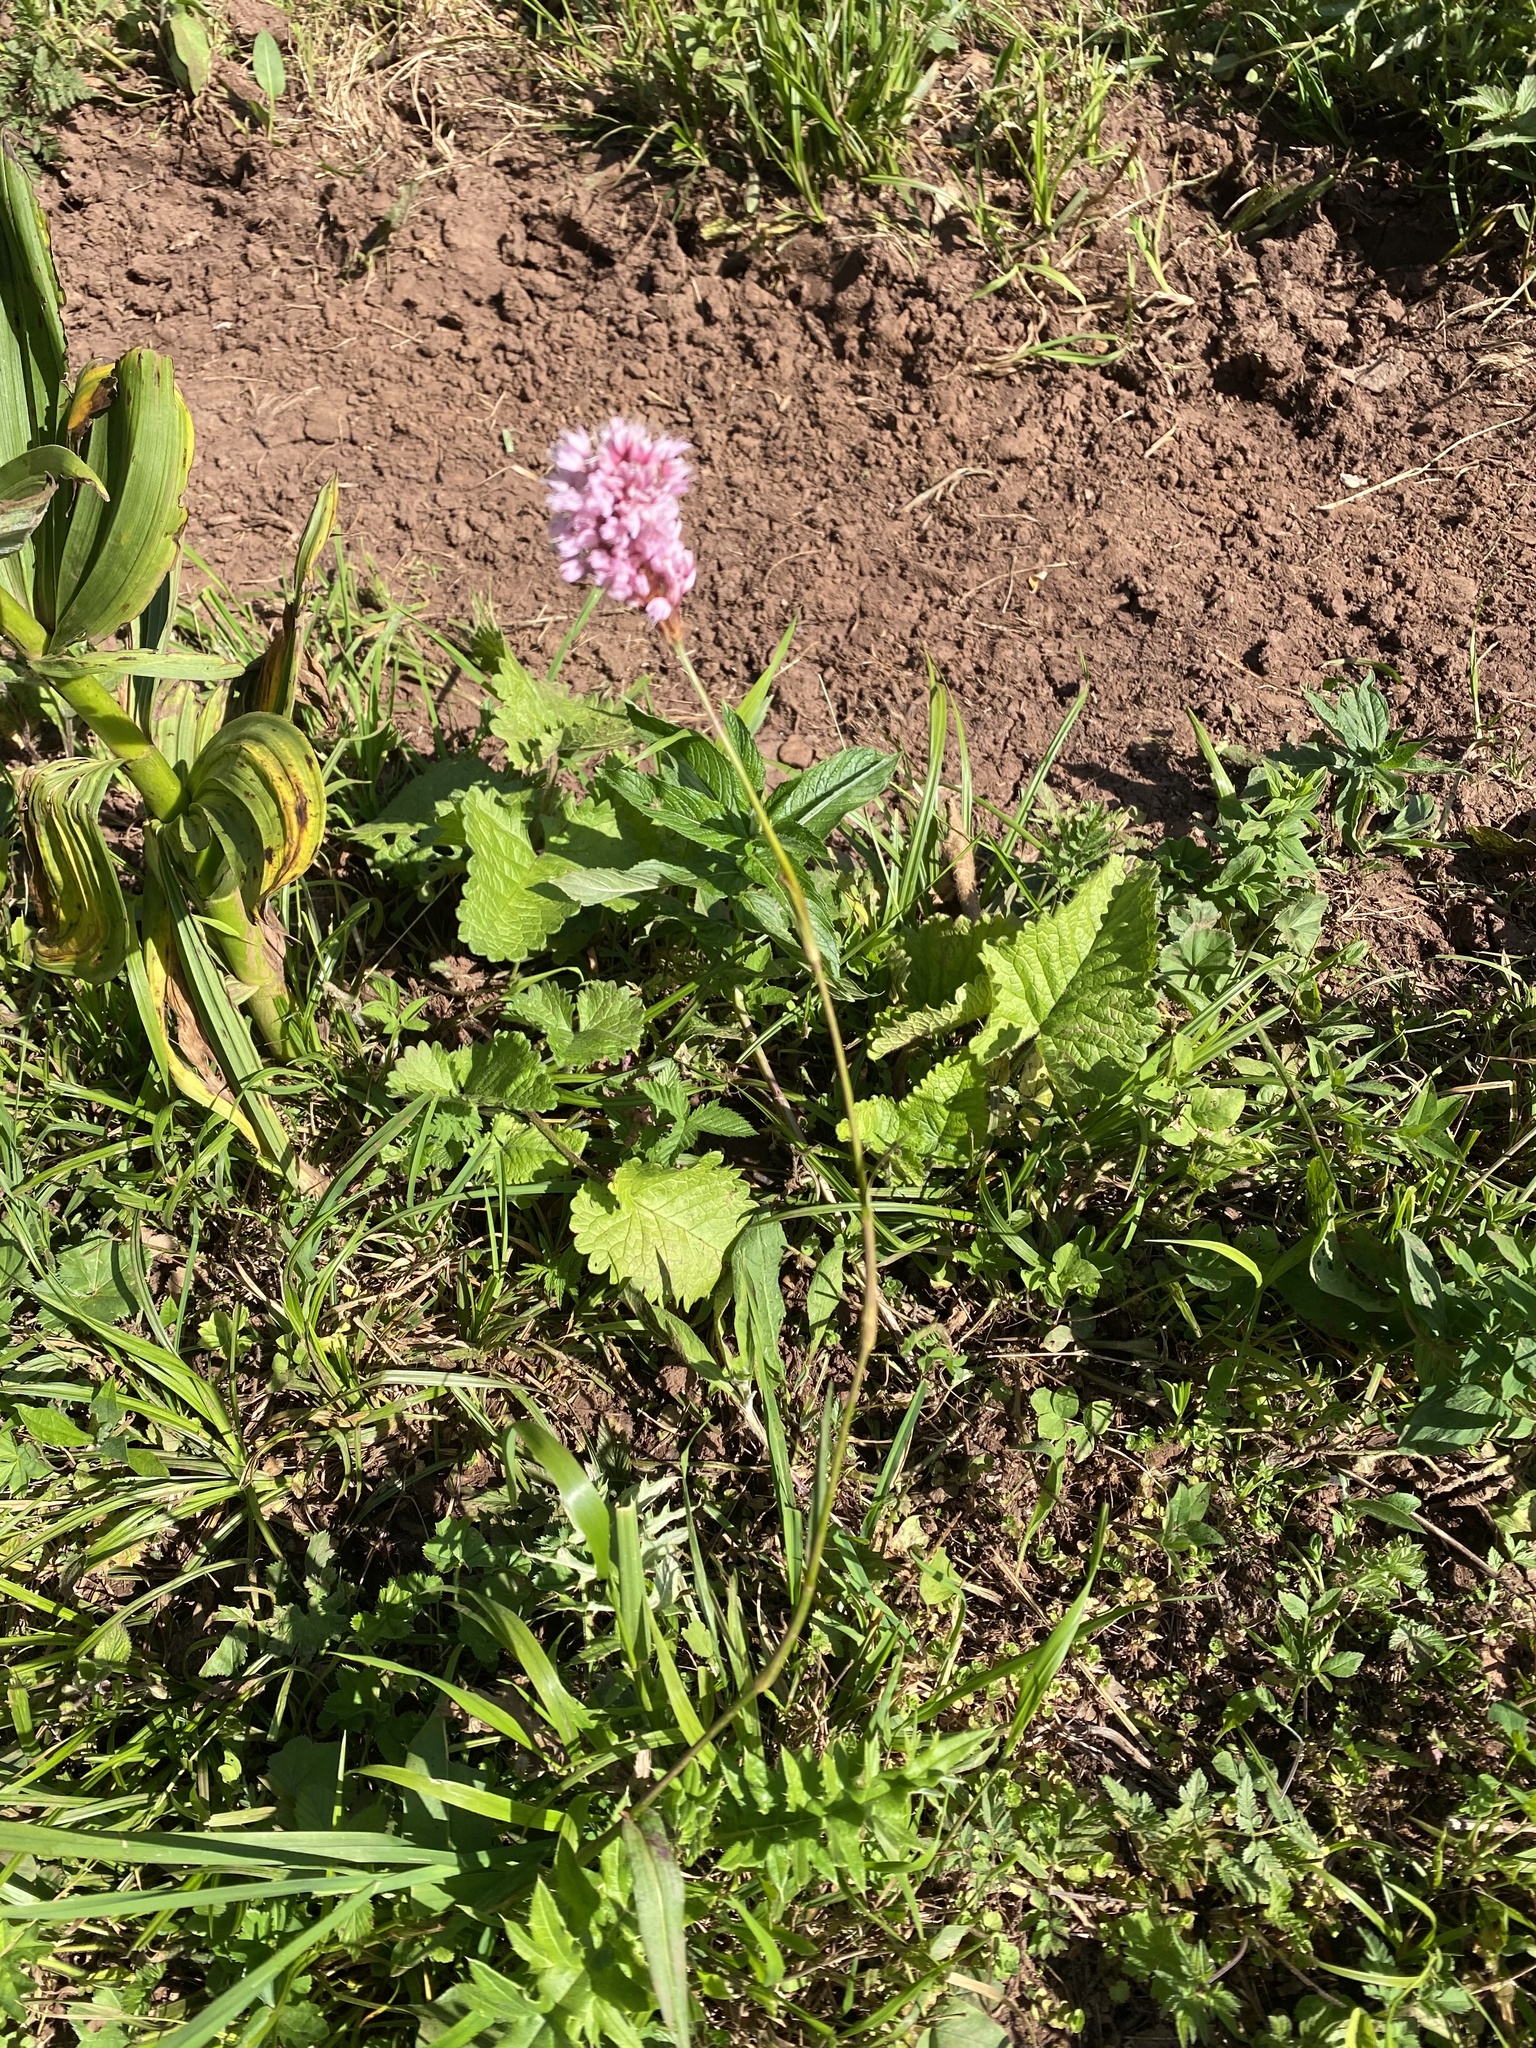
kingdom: Plantae
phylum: Tracheophyta
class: Magnoliopsida
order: Caryophyllales
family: Polygonaceae
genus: Bistorta
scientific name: Bistorta carnea
